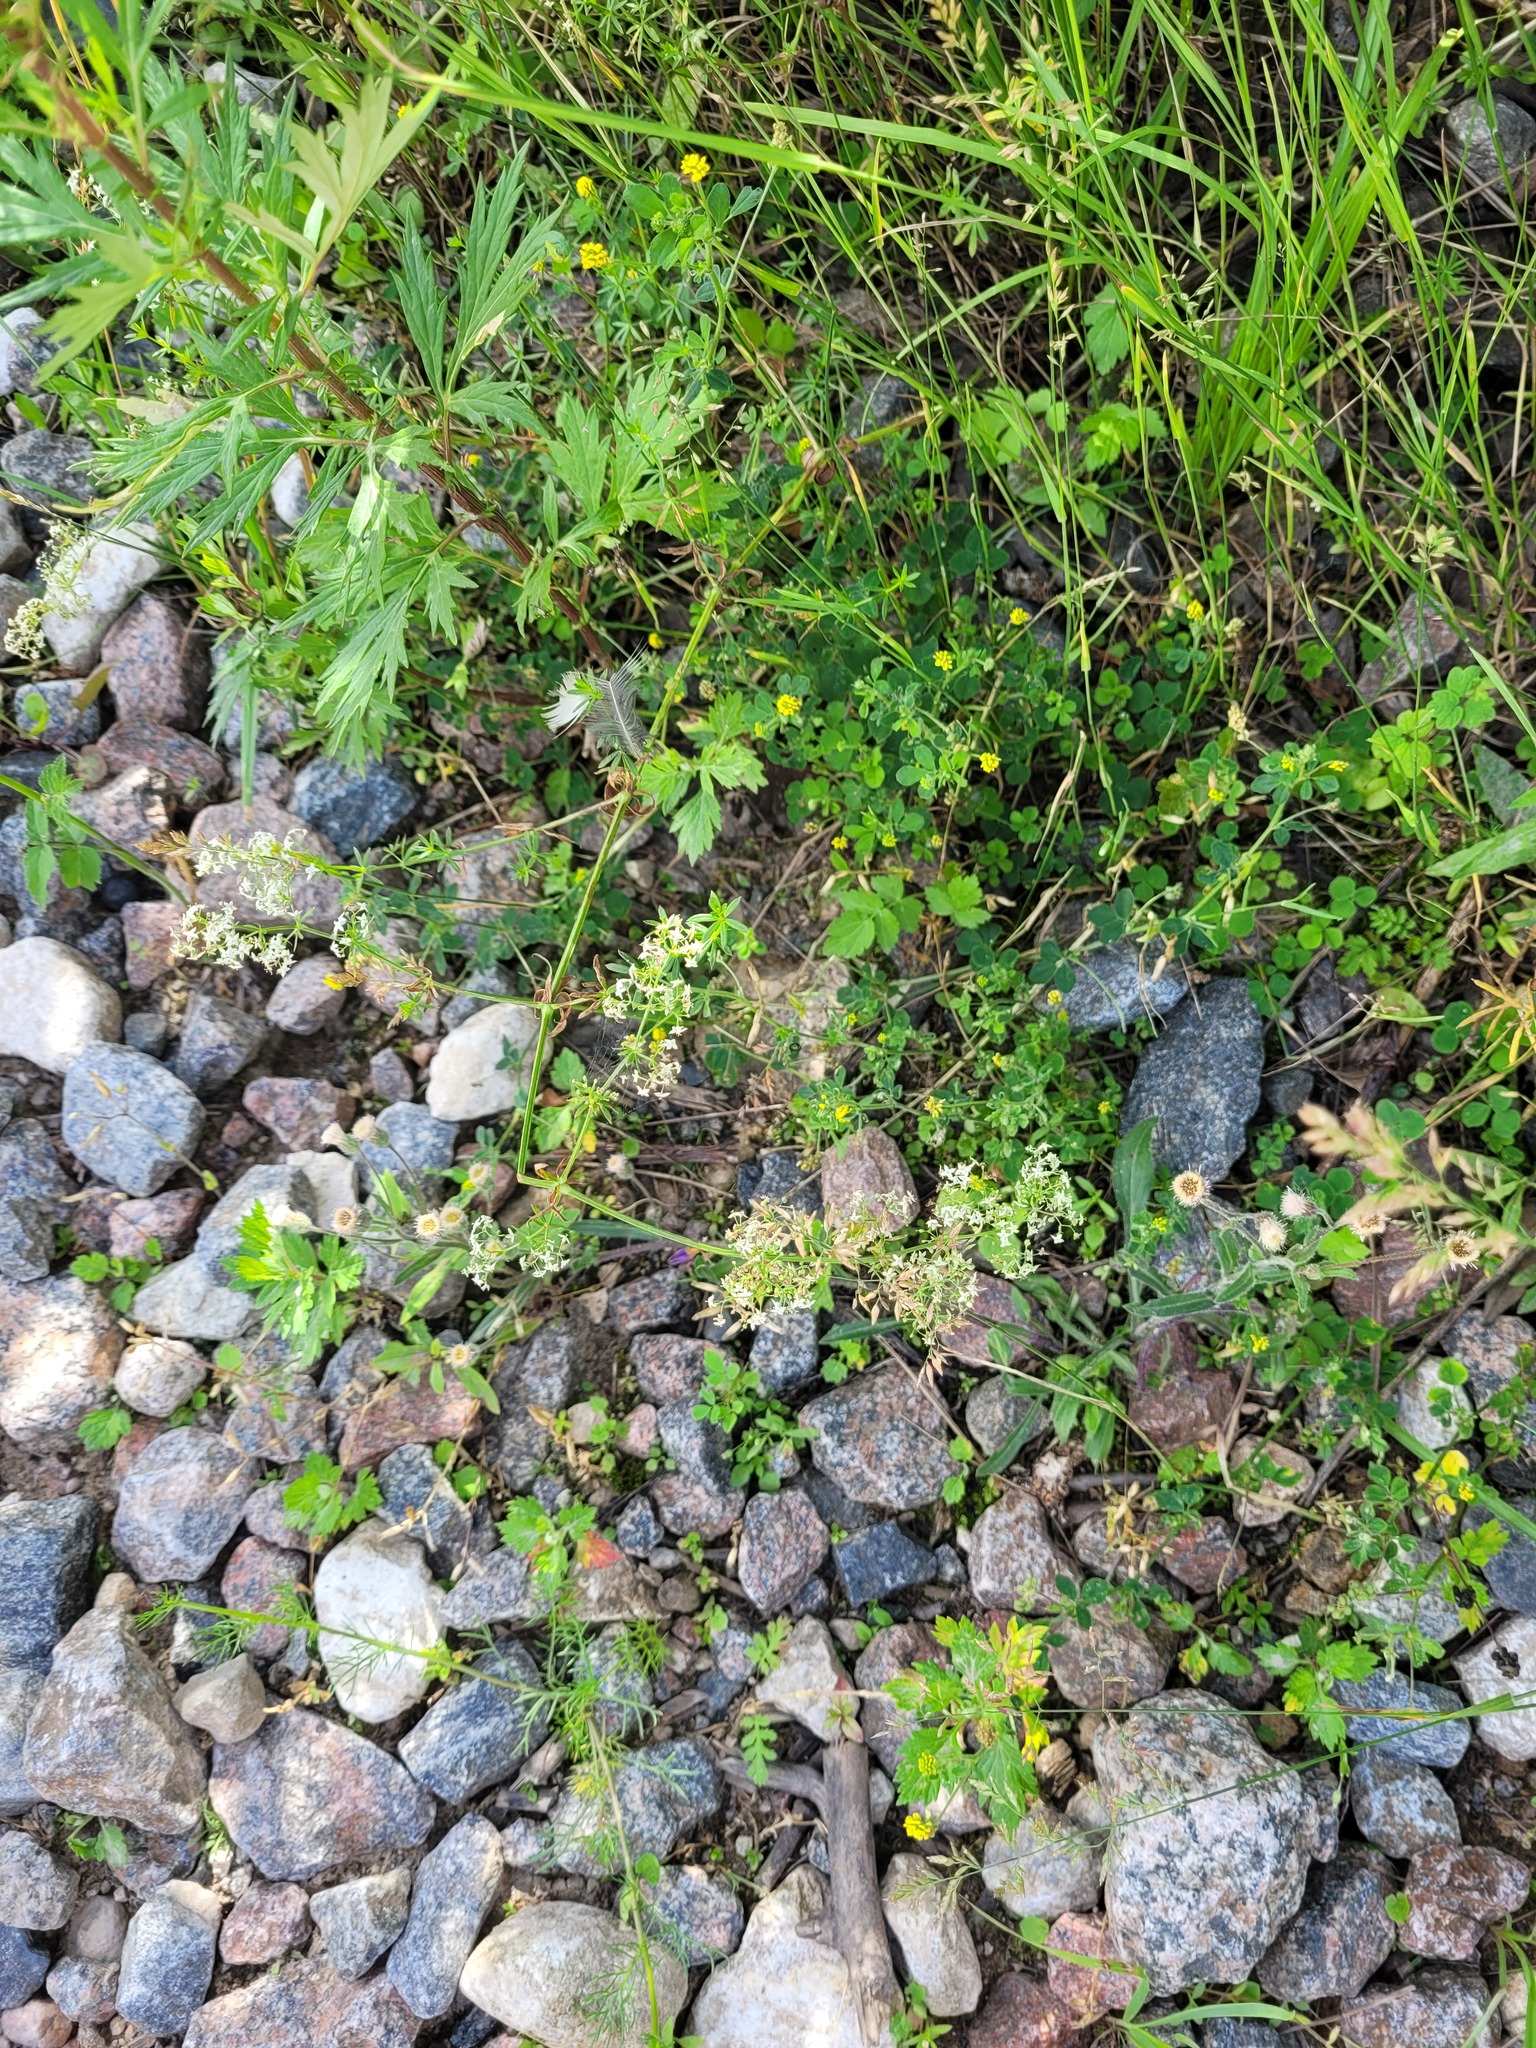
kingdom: Plantae
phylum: Tracheophyta
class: Magnoliopsida
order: Gentianales
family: Rubiaceae
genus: Galium
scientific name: Galium mollugo
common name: Hedge bedstraw
